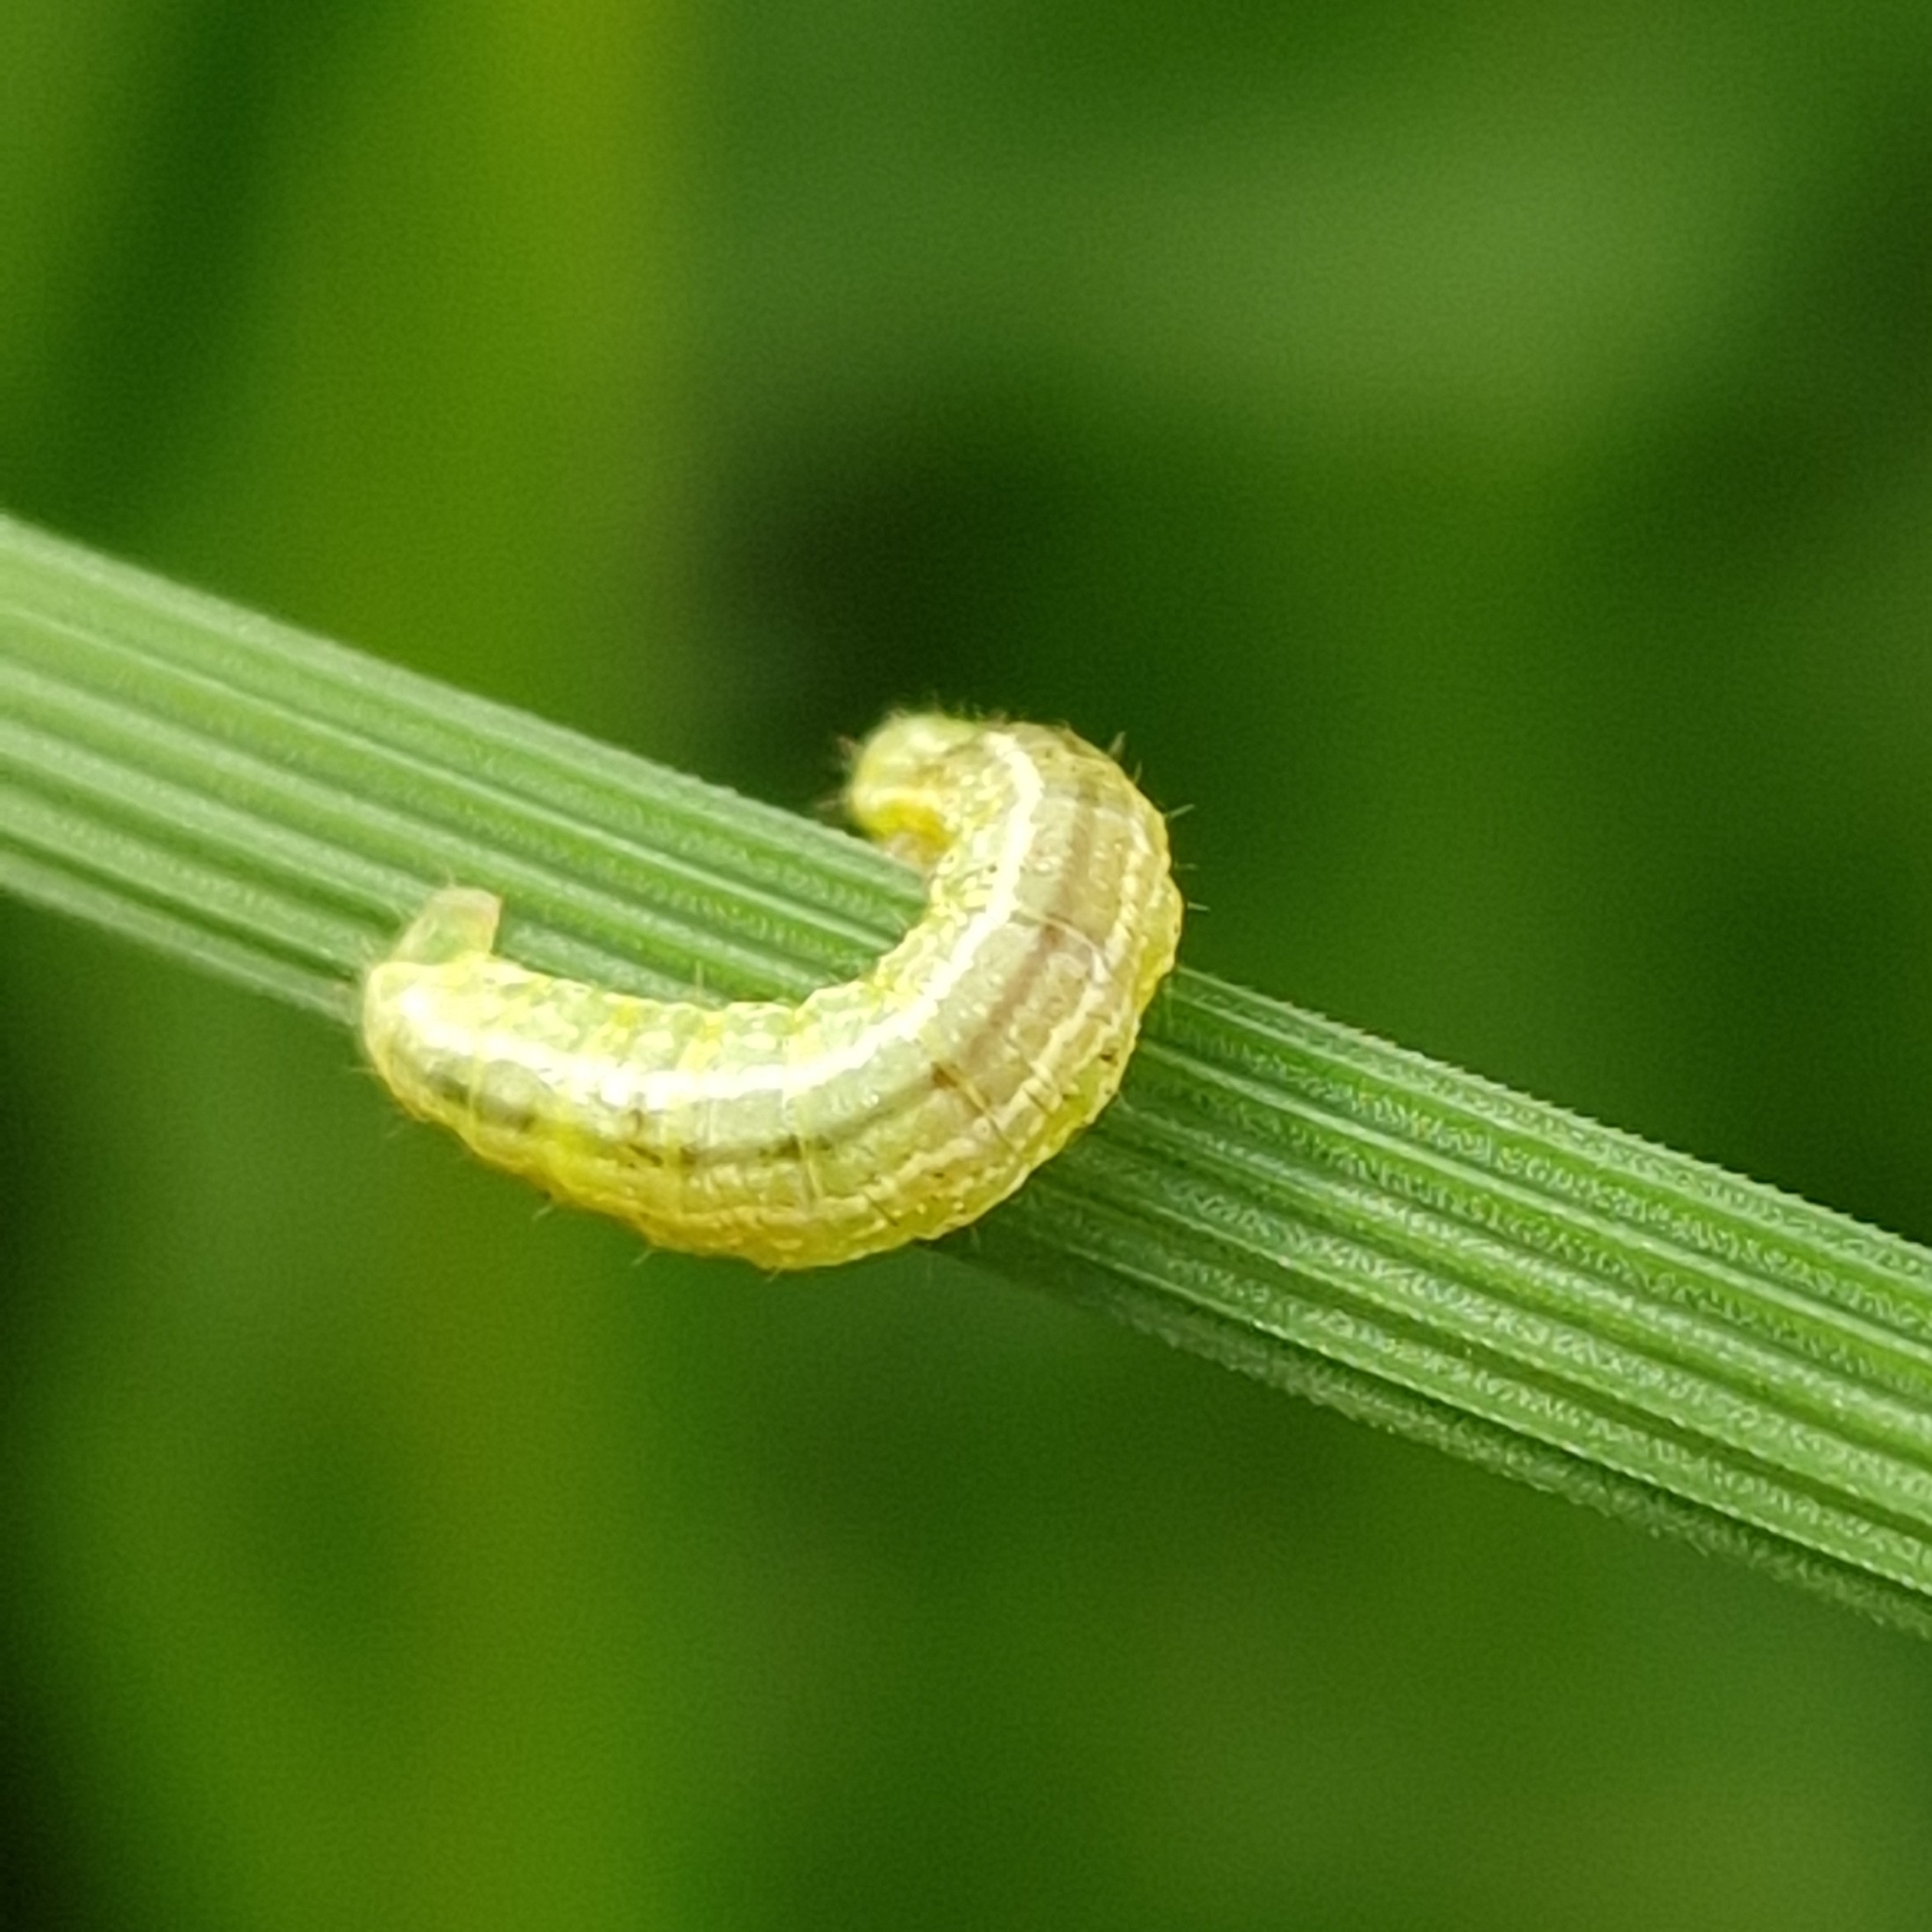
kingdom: Animalia
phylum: Arthropoda
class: Insecta
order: Lepidoptera
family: Geometridae
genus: Operophtera
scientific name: Operophtera brumata
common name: Winter moth
